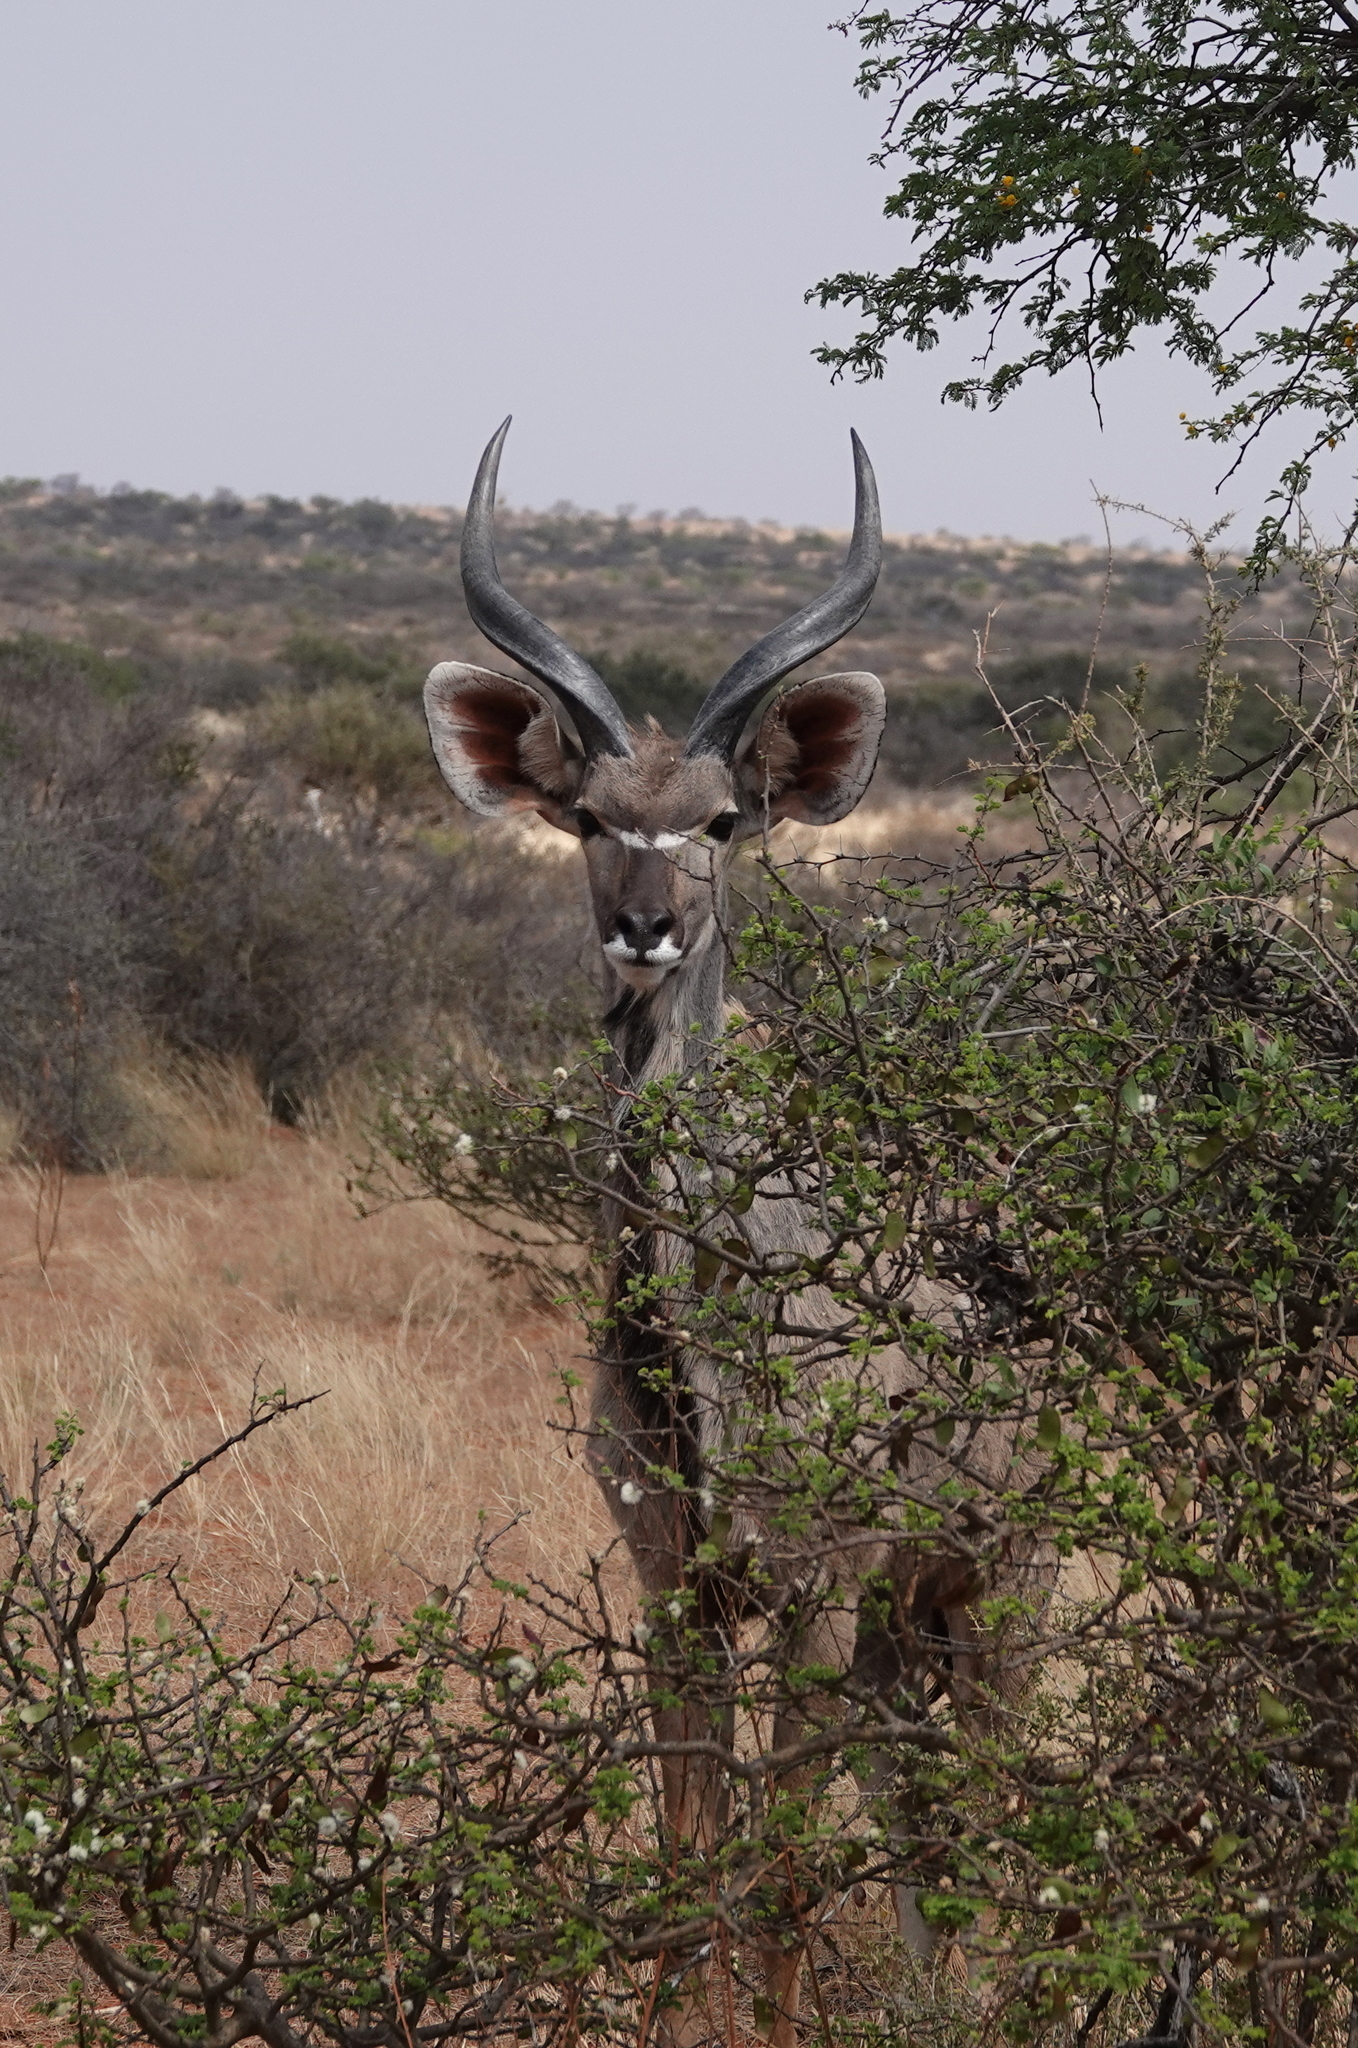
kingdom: Animalia
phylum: Chordata
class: Mammalia
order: Artiodactyla
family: Bovidae
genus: Tragelaphus
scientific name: Tragelaphus strepsiceros
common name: Greater kudu
